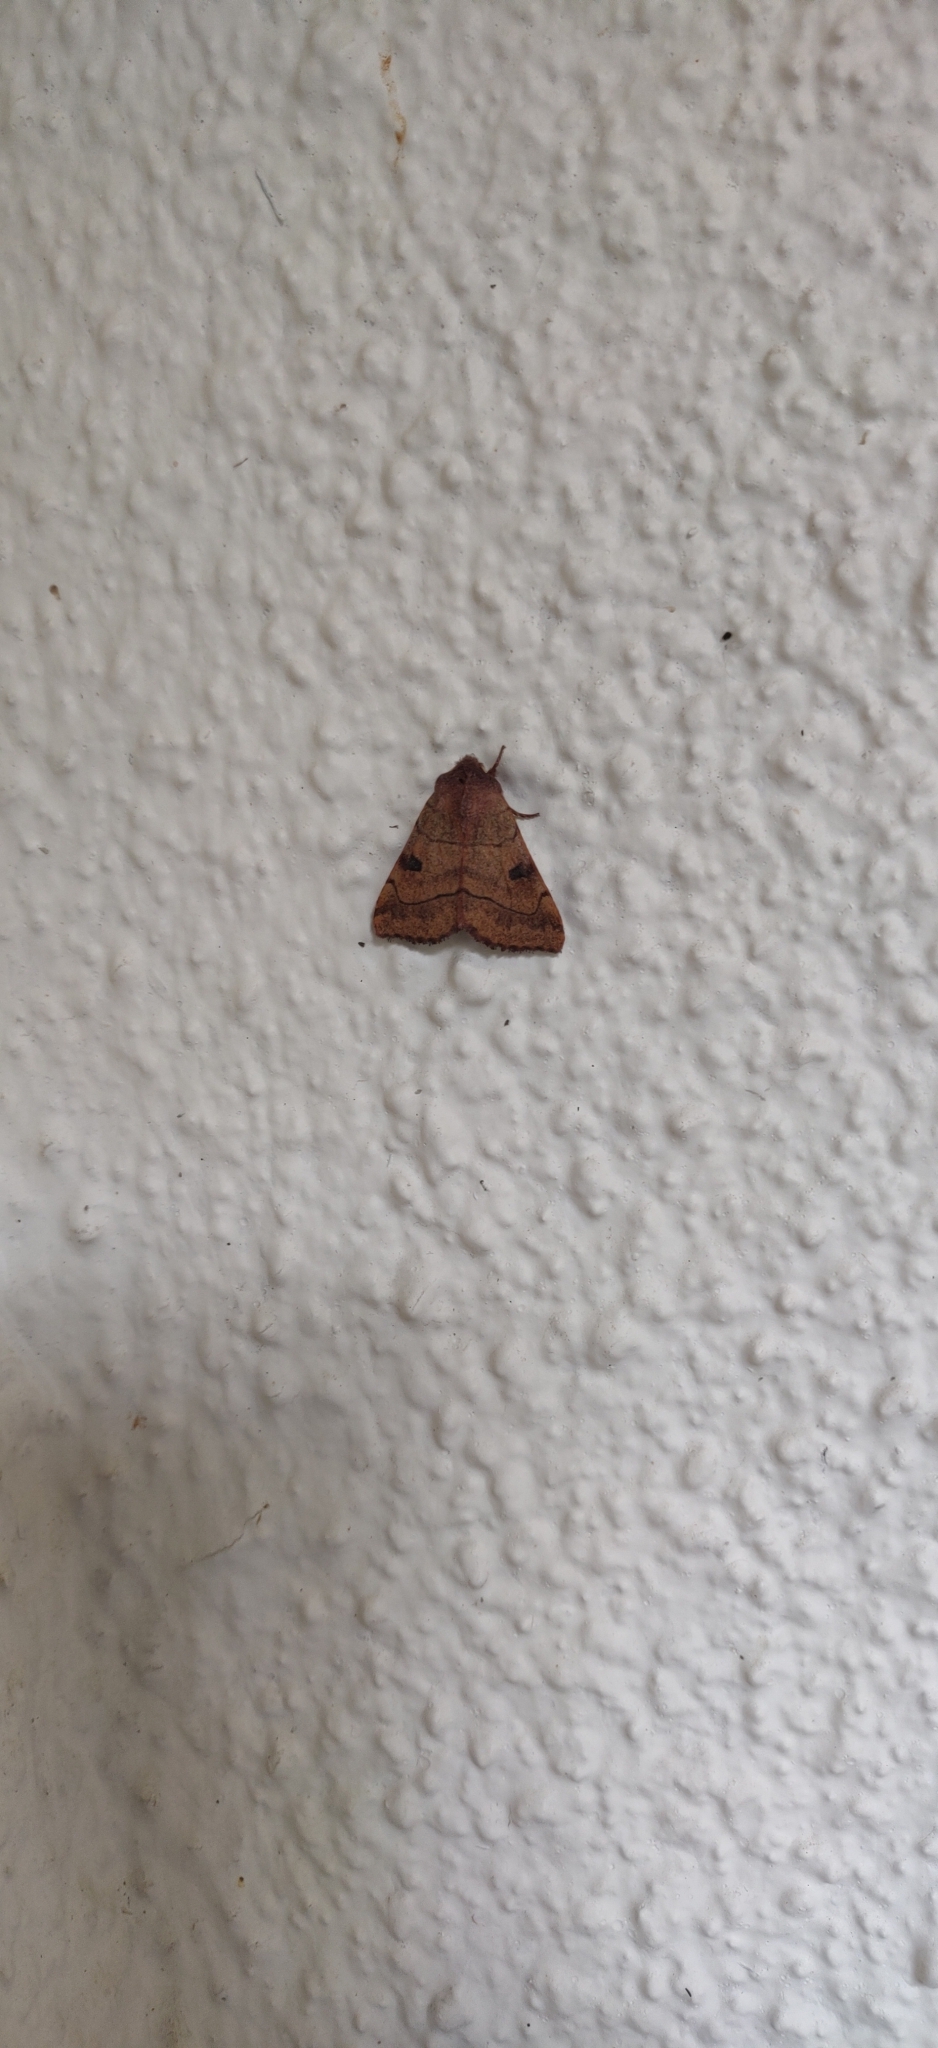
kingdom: Animalia
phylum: Arthropoda
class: Insecta
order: Lepidoptera
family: Noctuidae
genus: Choephora
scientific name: Choephora fungorum
